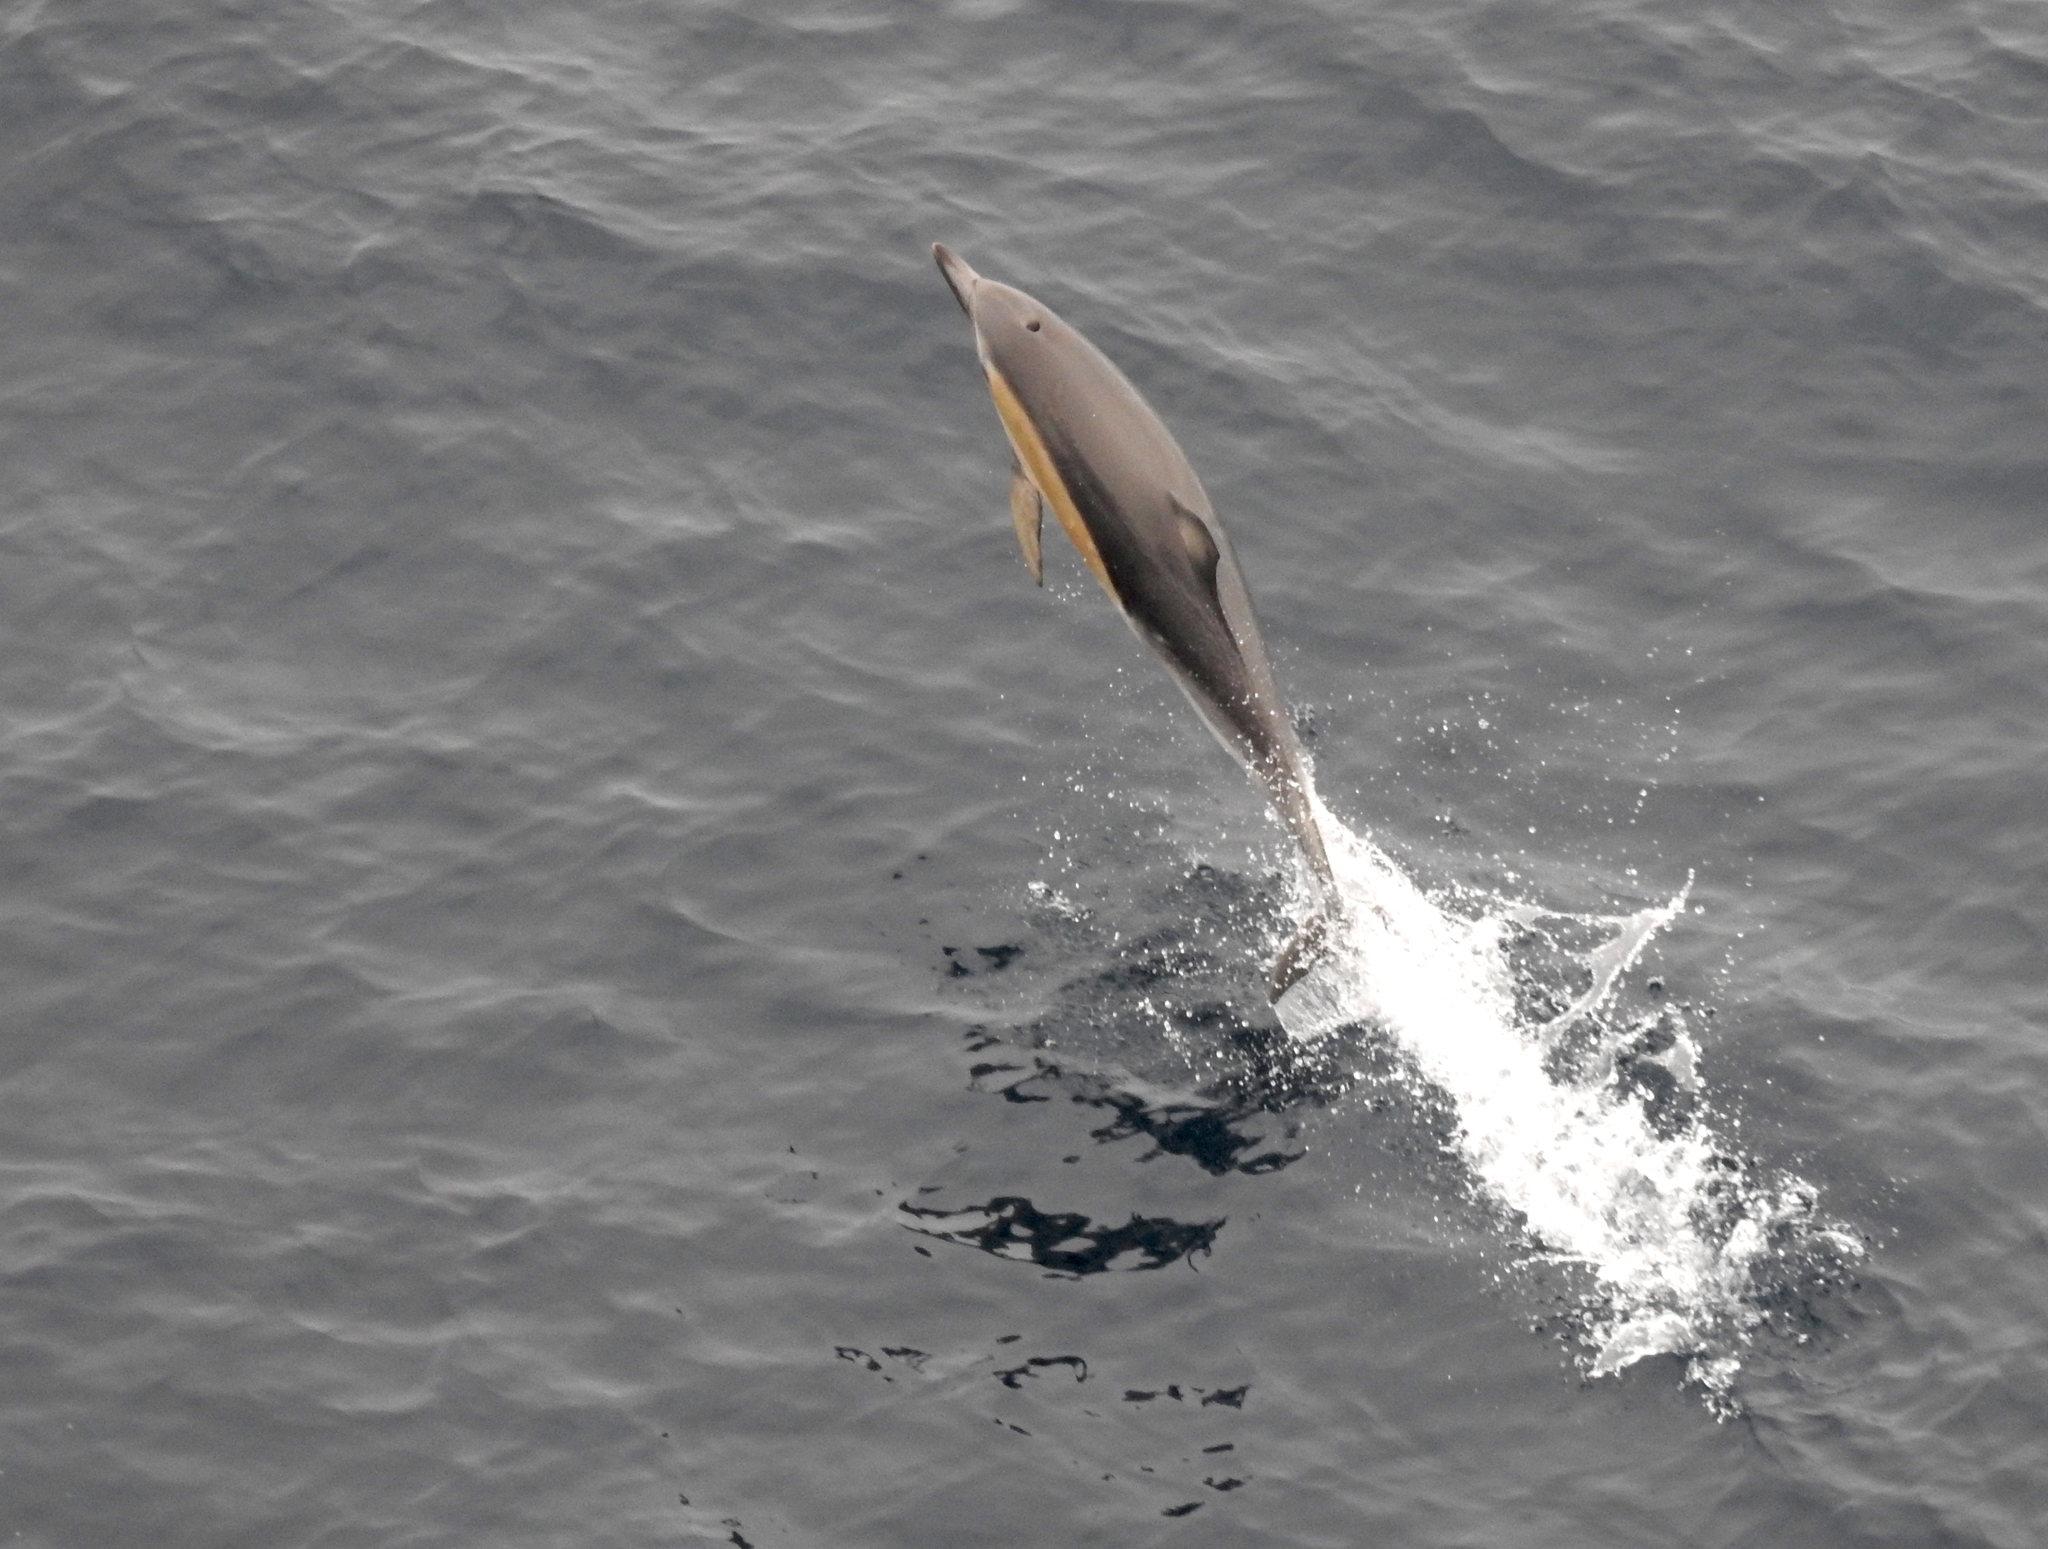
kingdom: Animalia
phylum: Chordata
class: Mammalia
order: Cetacea
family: Delphinidae
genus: Delphinus
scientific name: Delphinus delphis
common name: Common dolphin
